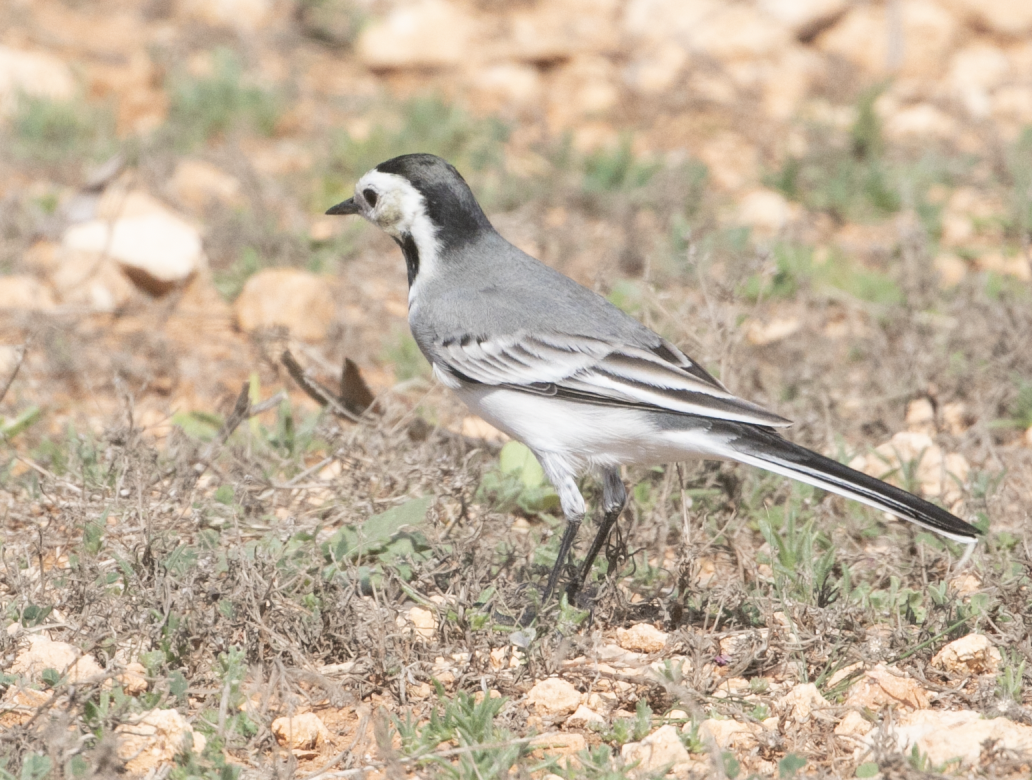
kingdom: Animalia
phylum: Chordata
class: Aves
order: Passeriformes
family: Motacillidae
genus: Motacilla
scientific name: Motacilla alba
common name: White wagtail
